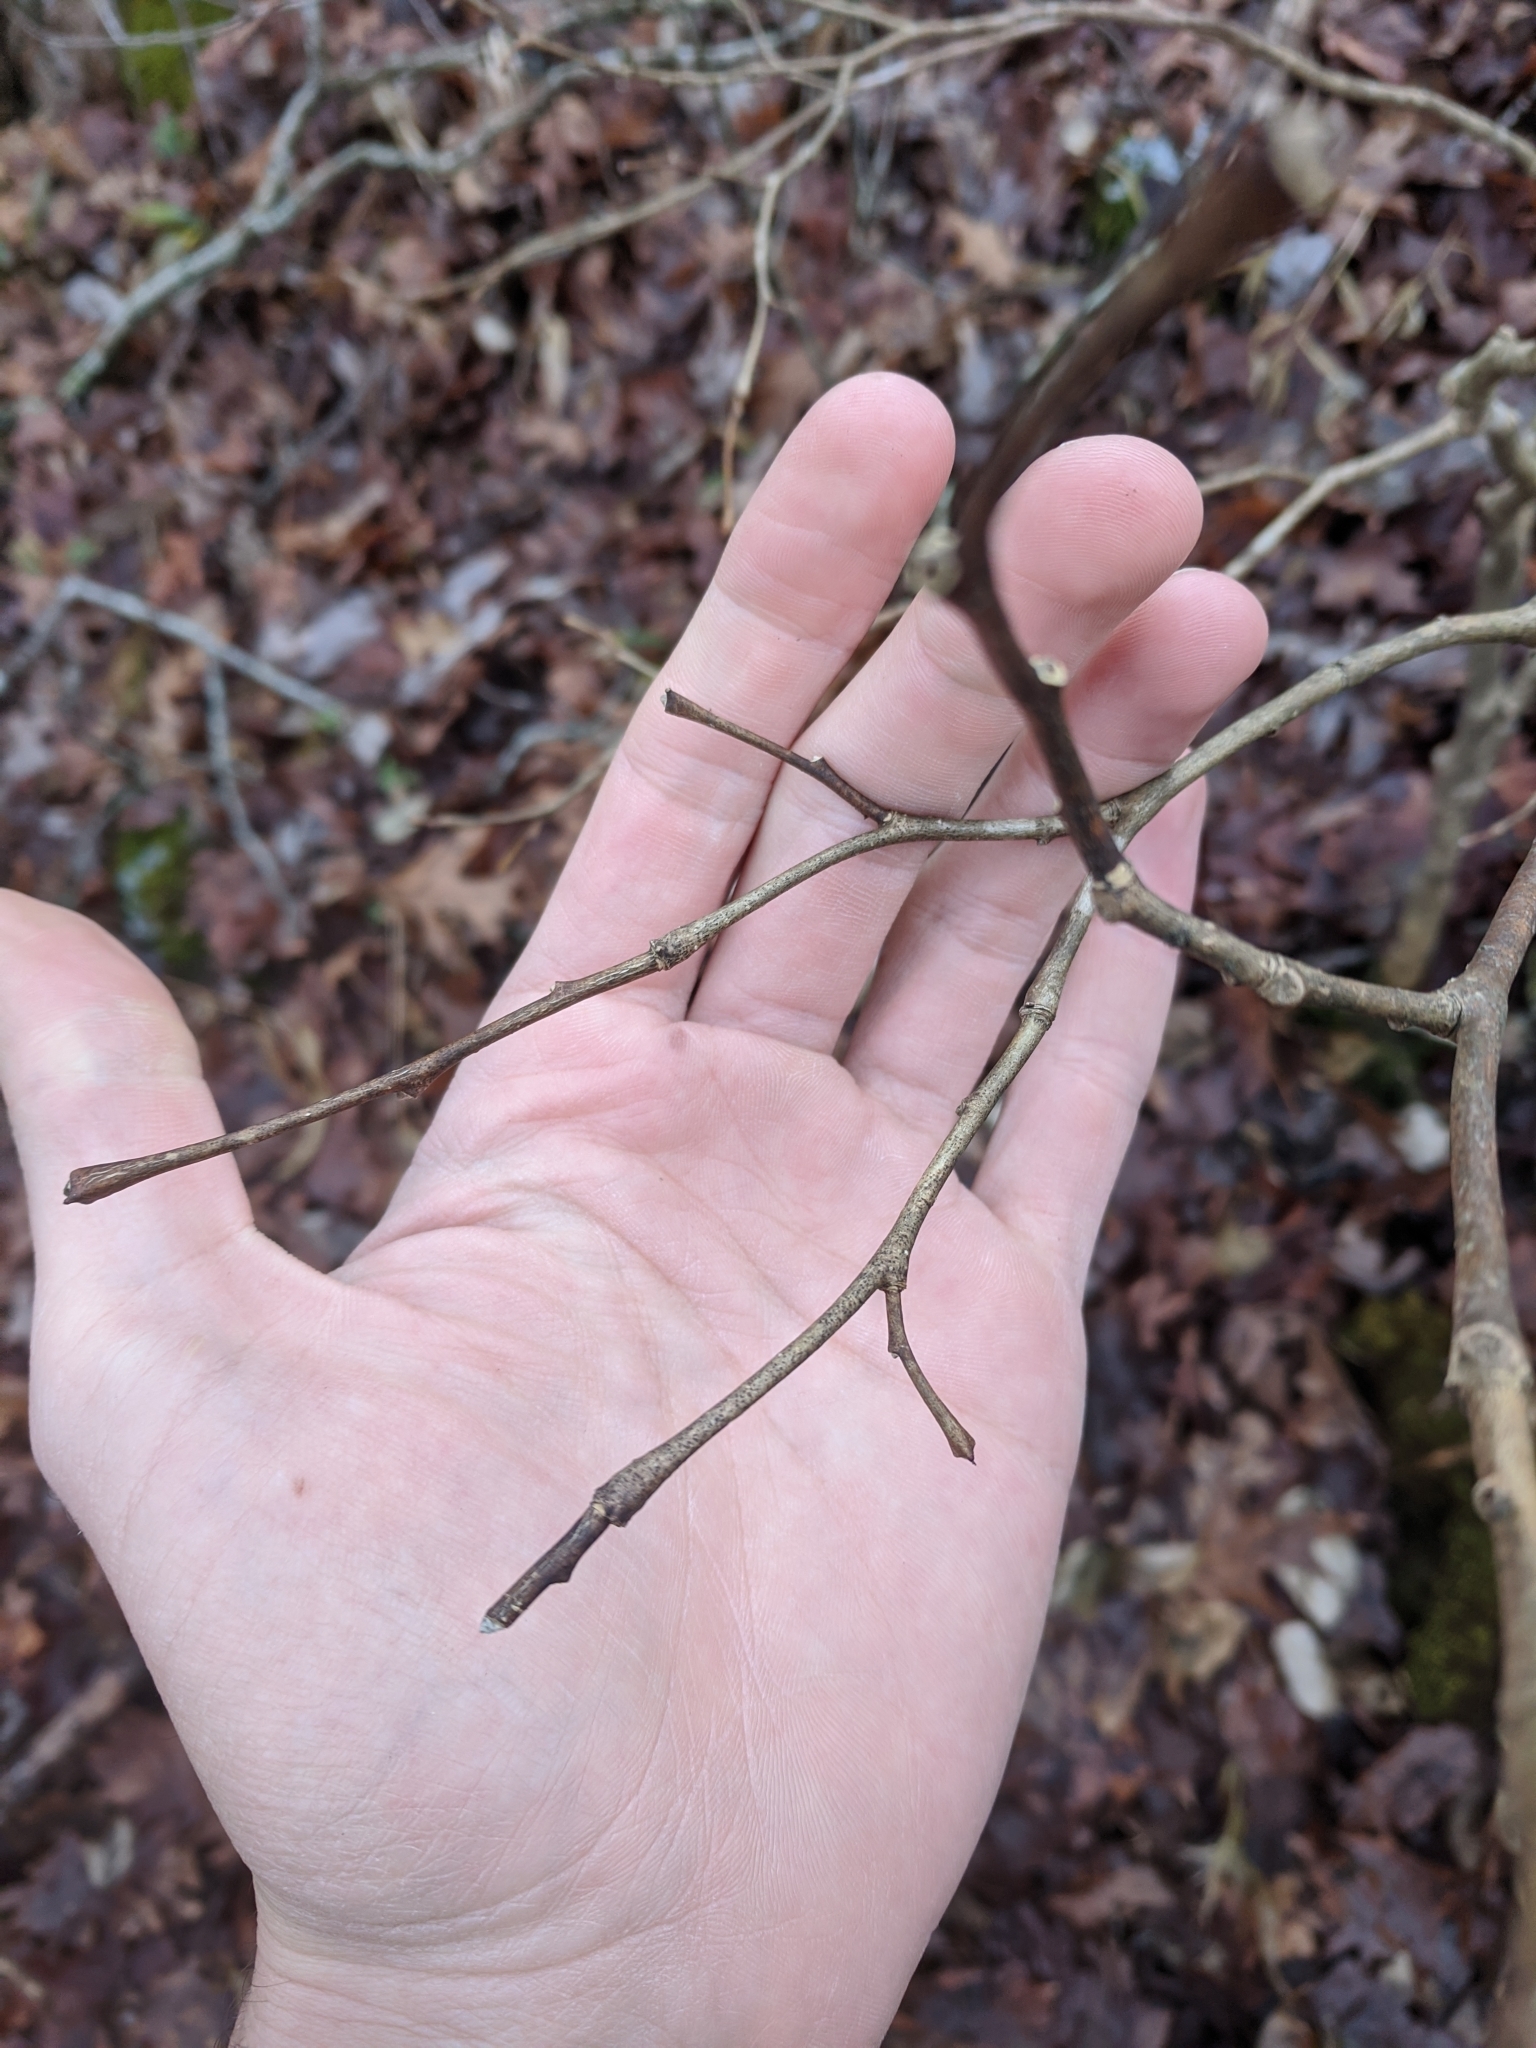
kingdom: Plantae
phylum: Tracheophyta
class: Magnoliopsida
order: Malvales
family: Thymelaeaceae
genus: Dirca
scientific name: Dirca palustris
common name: Leatherwood
